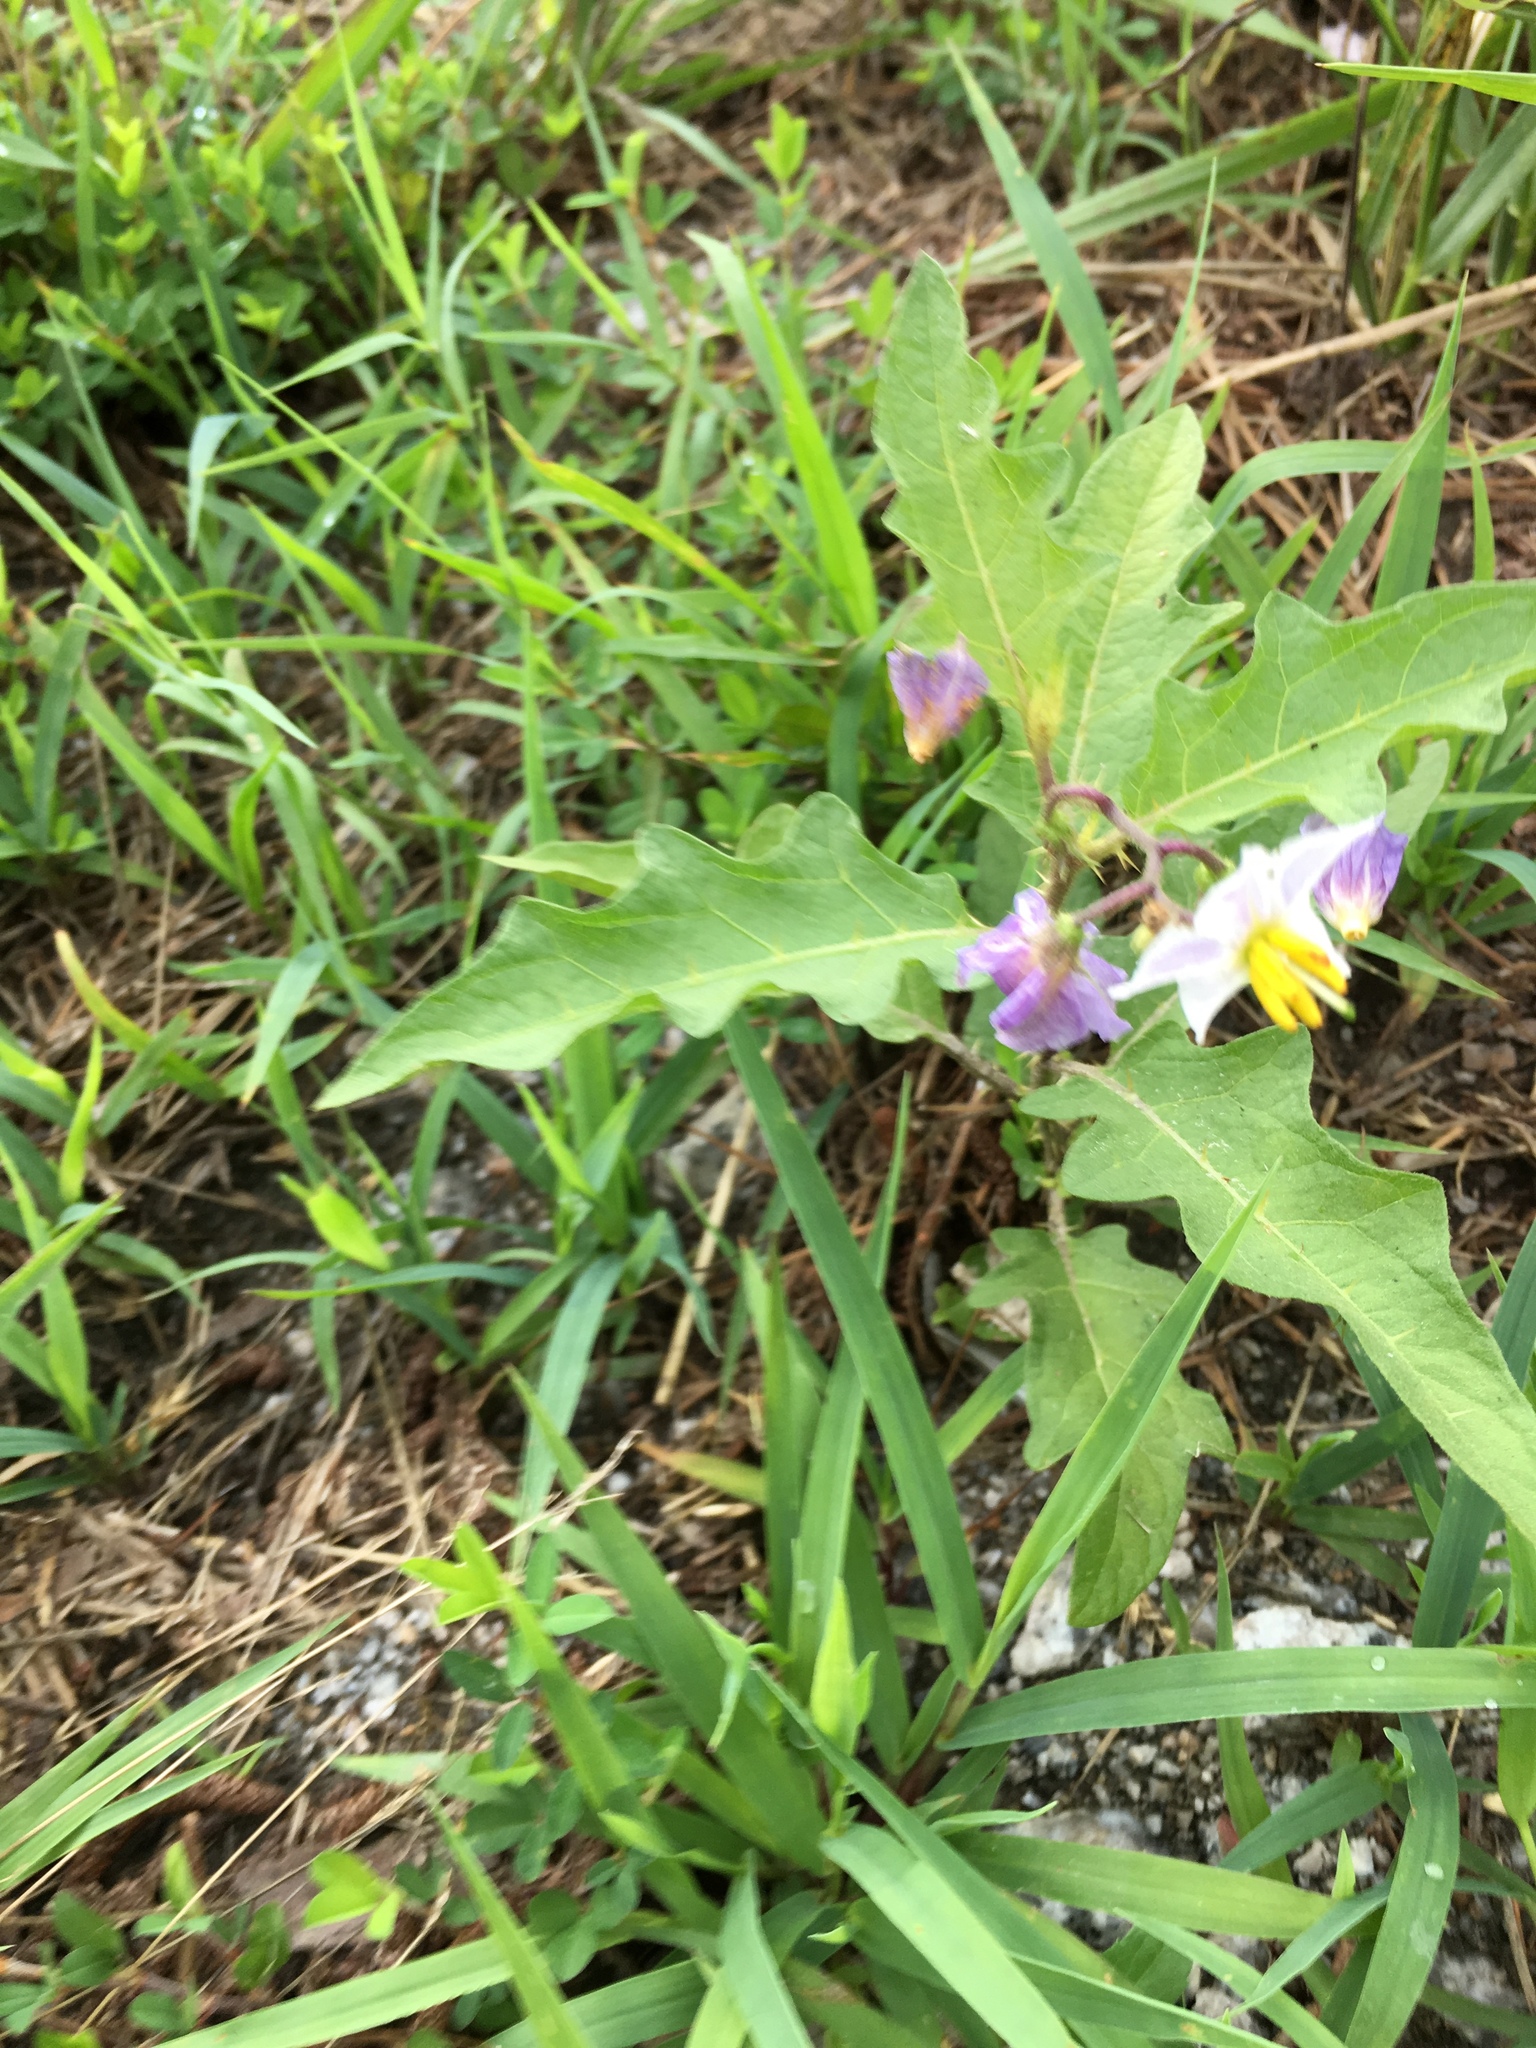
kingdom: Plantae
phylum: Tracheophyta
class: Magnoliopsida
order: Solanales
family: Solanaceae
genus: Solanum
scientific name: Solanum carolinense
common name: Horse-nettle
